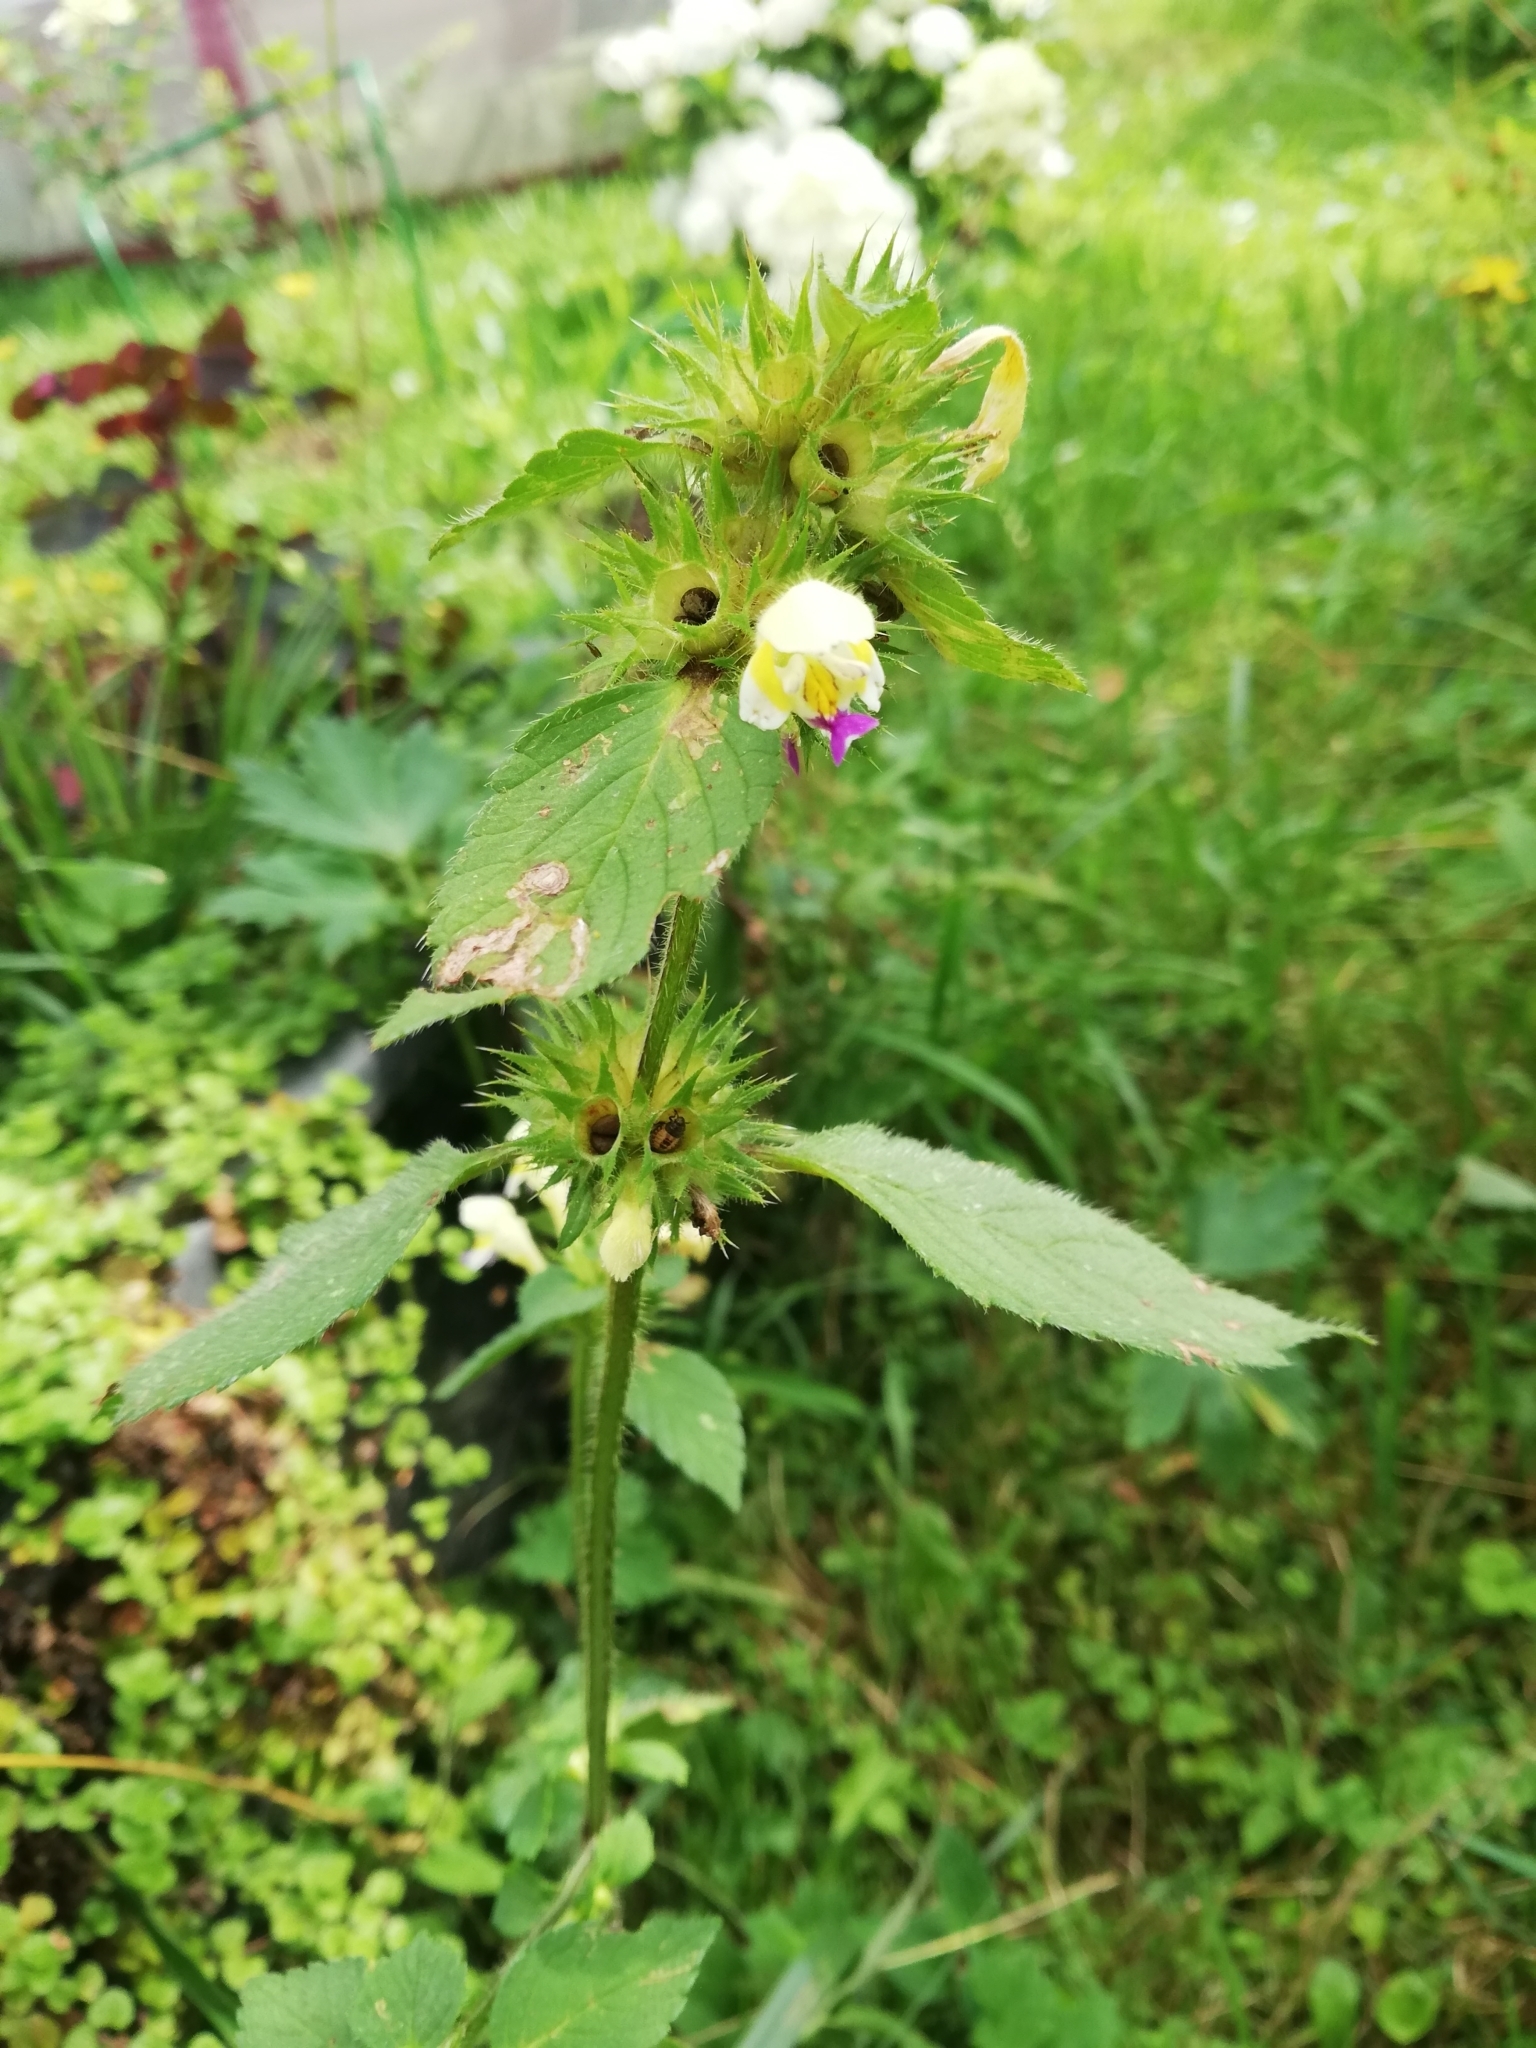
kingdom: Plantae
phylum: Tracheophyta
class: Magnoliopsida
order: Lamiales
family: Lamiaceae
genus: Galeopsis
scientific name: Galeopsis speciosa
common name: Large-flowered hemp-nettle
